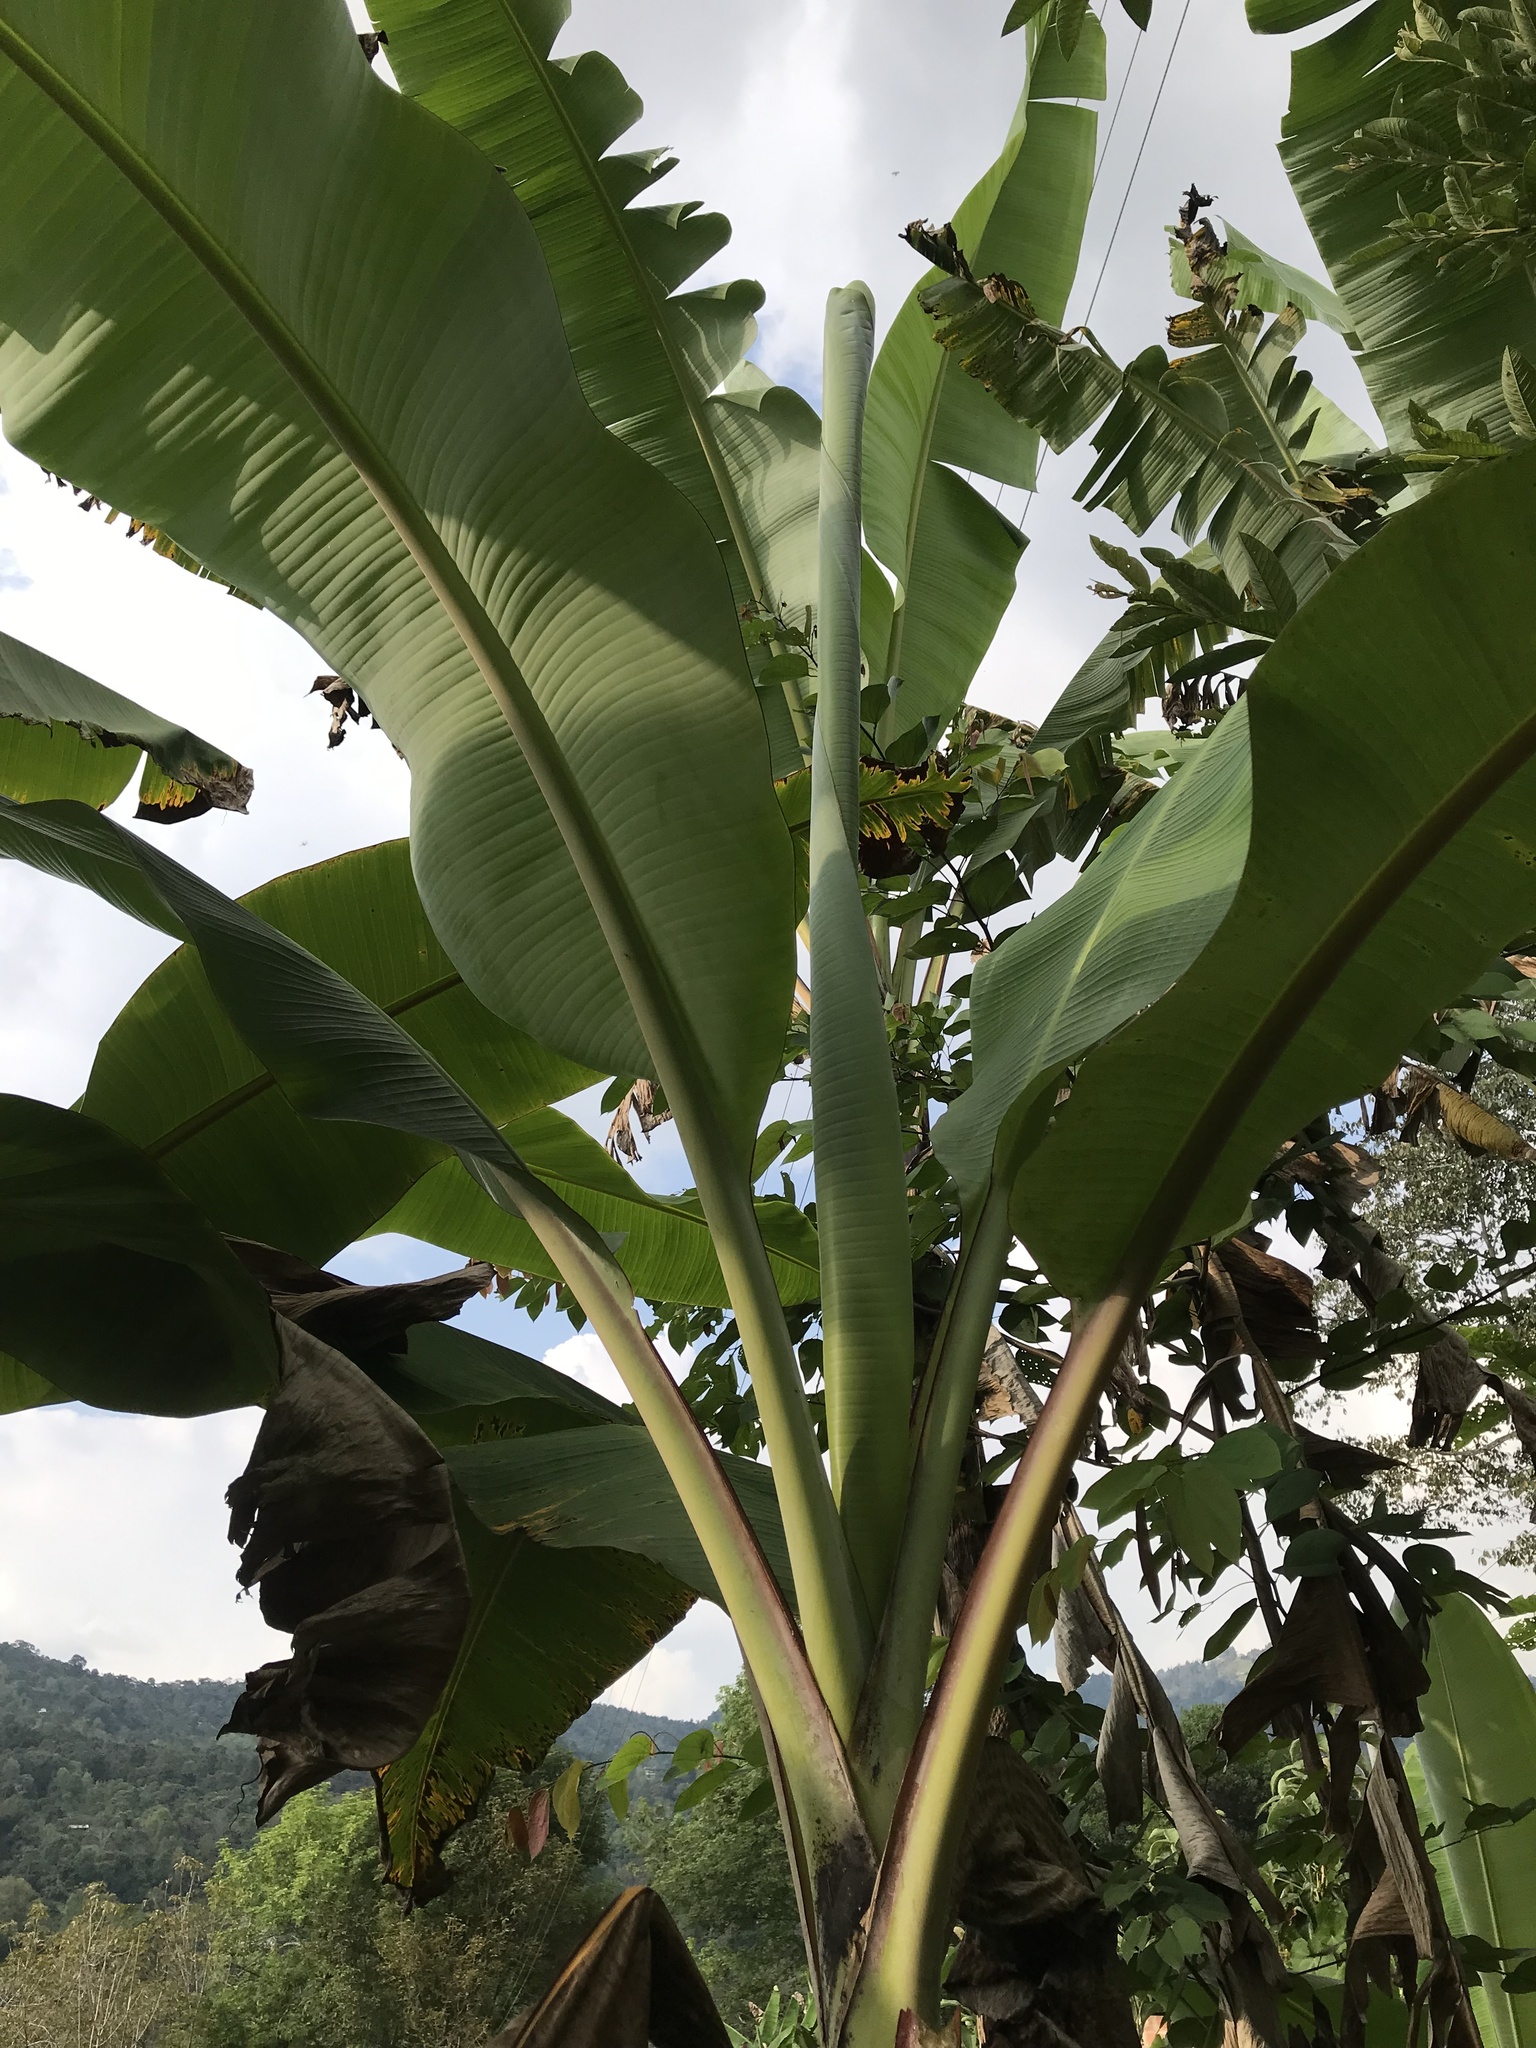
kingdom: Plantae
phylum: Tracheophyta
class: Liliopsida
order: Zingiberales
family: Musaceae
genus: Musa
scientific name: Musa acuminata
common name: Edible banana
